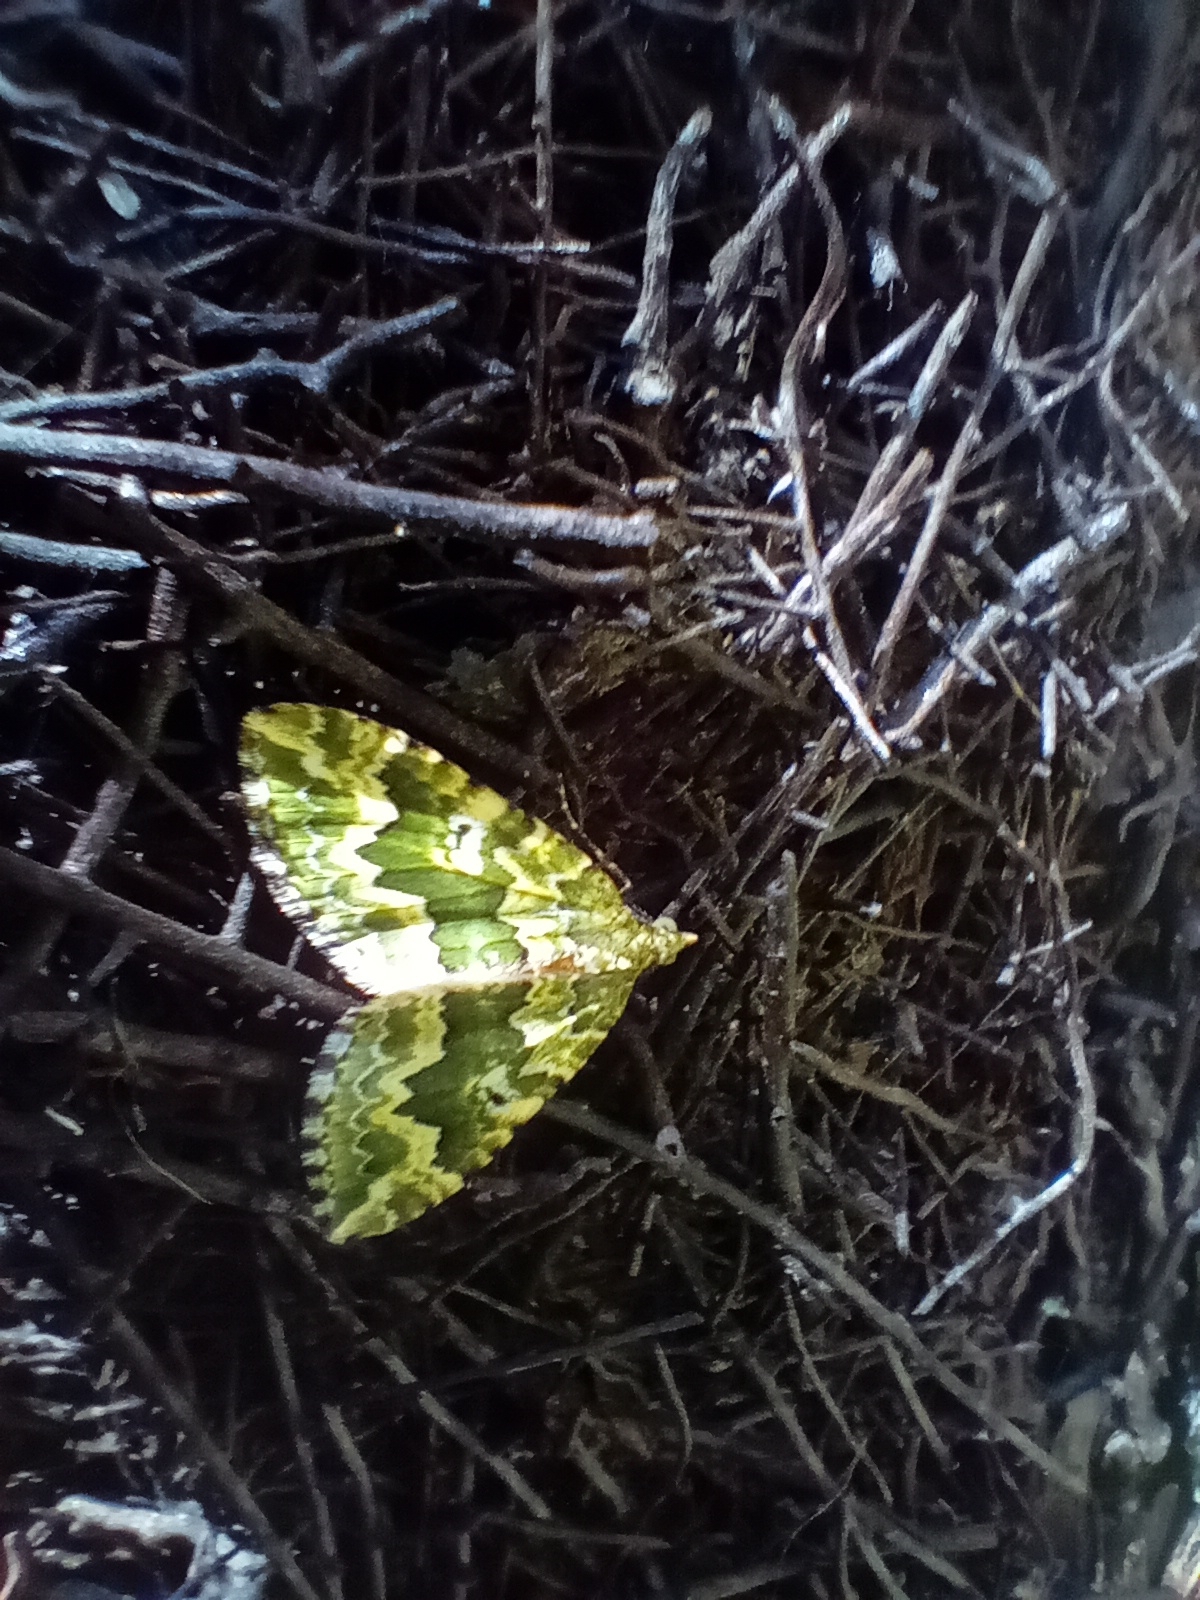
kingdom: Animalia
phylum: Arthropoda
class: Insecta
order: Lepidoptera
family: Geometridae
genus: Asaphodes
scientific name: Asaphodes beata
